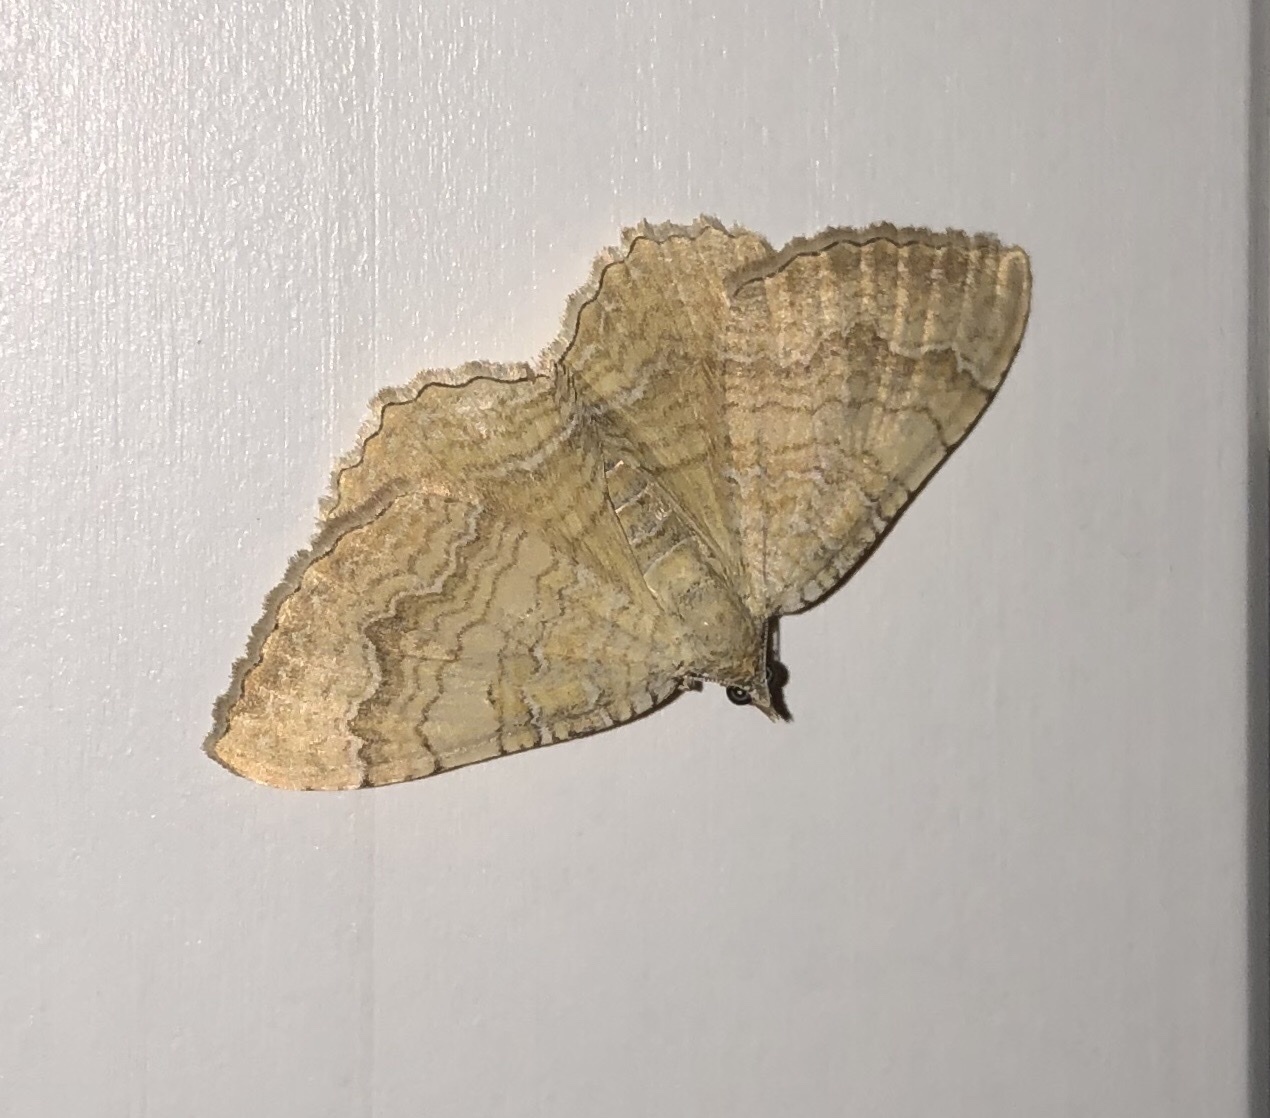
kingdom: Animalia
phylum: Arthropoda
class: Insecta
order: Lepidoptera
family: Geometridae
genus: Camptogramma
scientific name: Camptogramma bilineata
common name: Yellow shell
